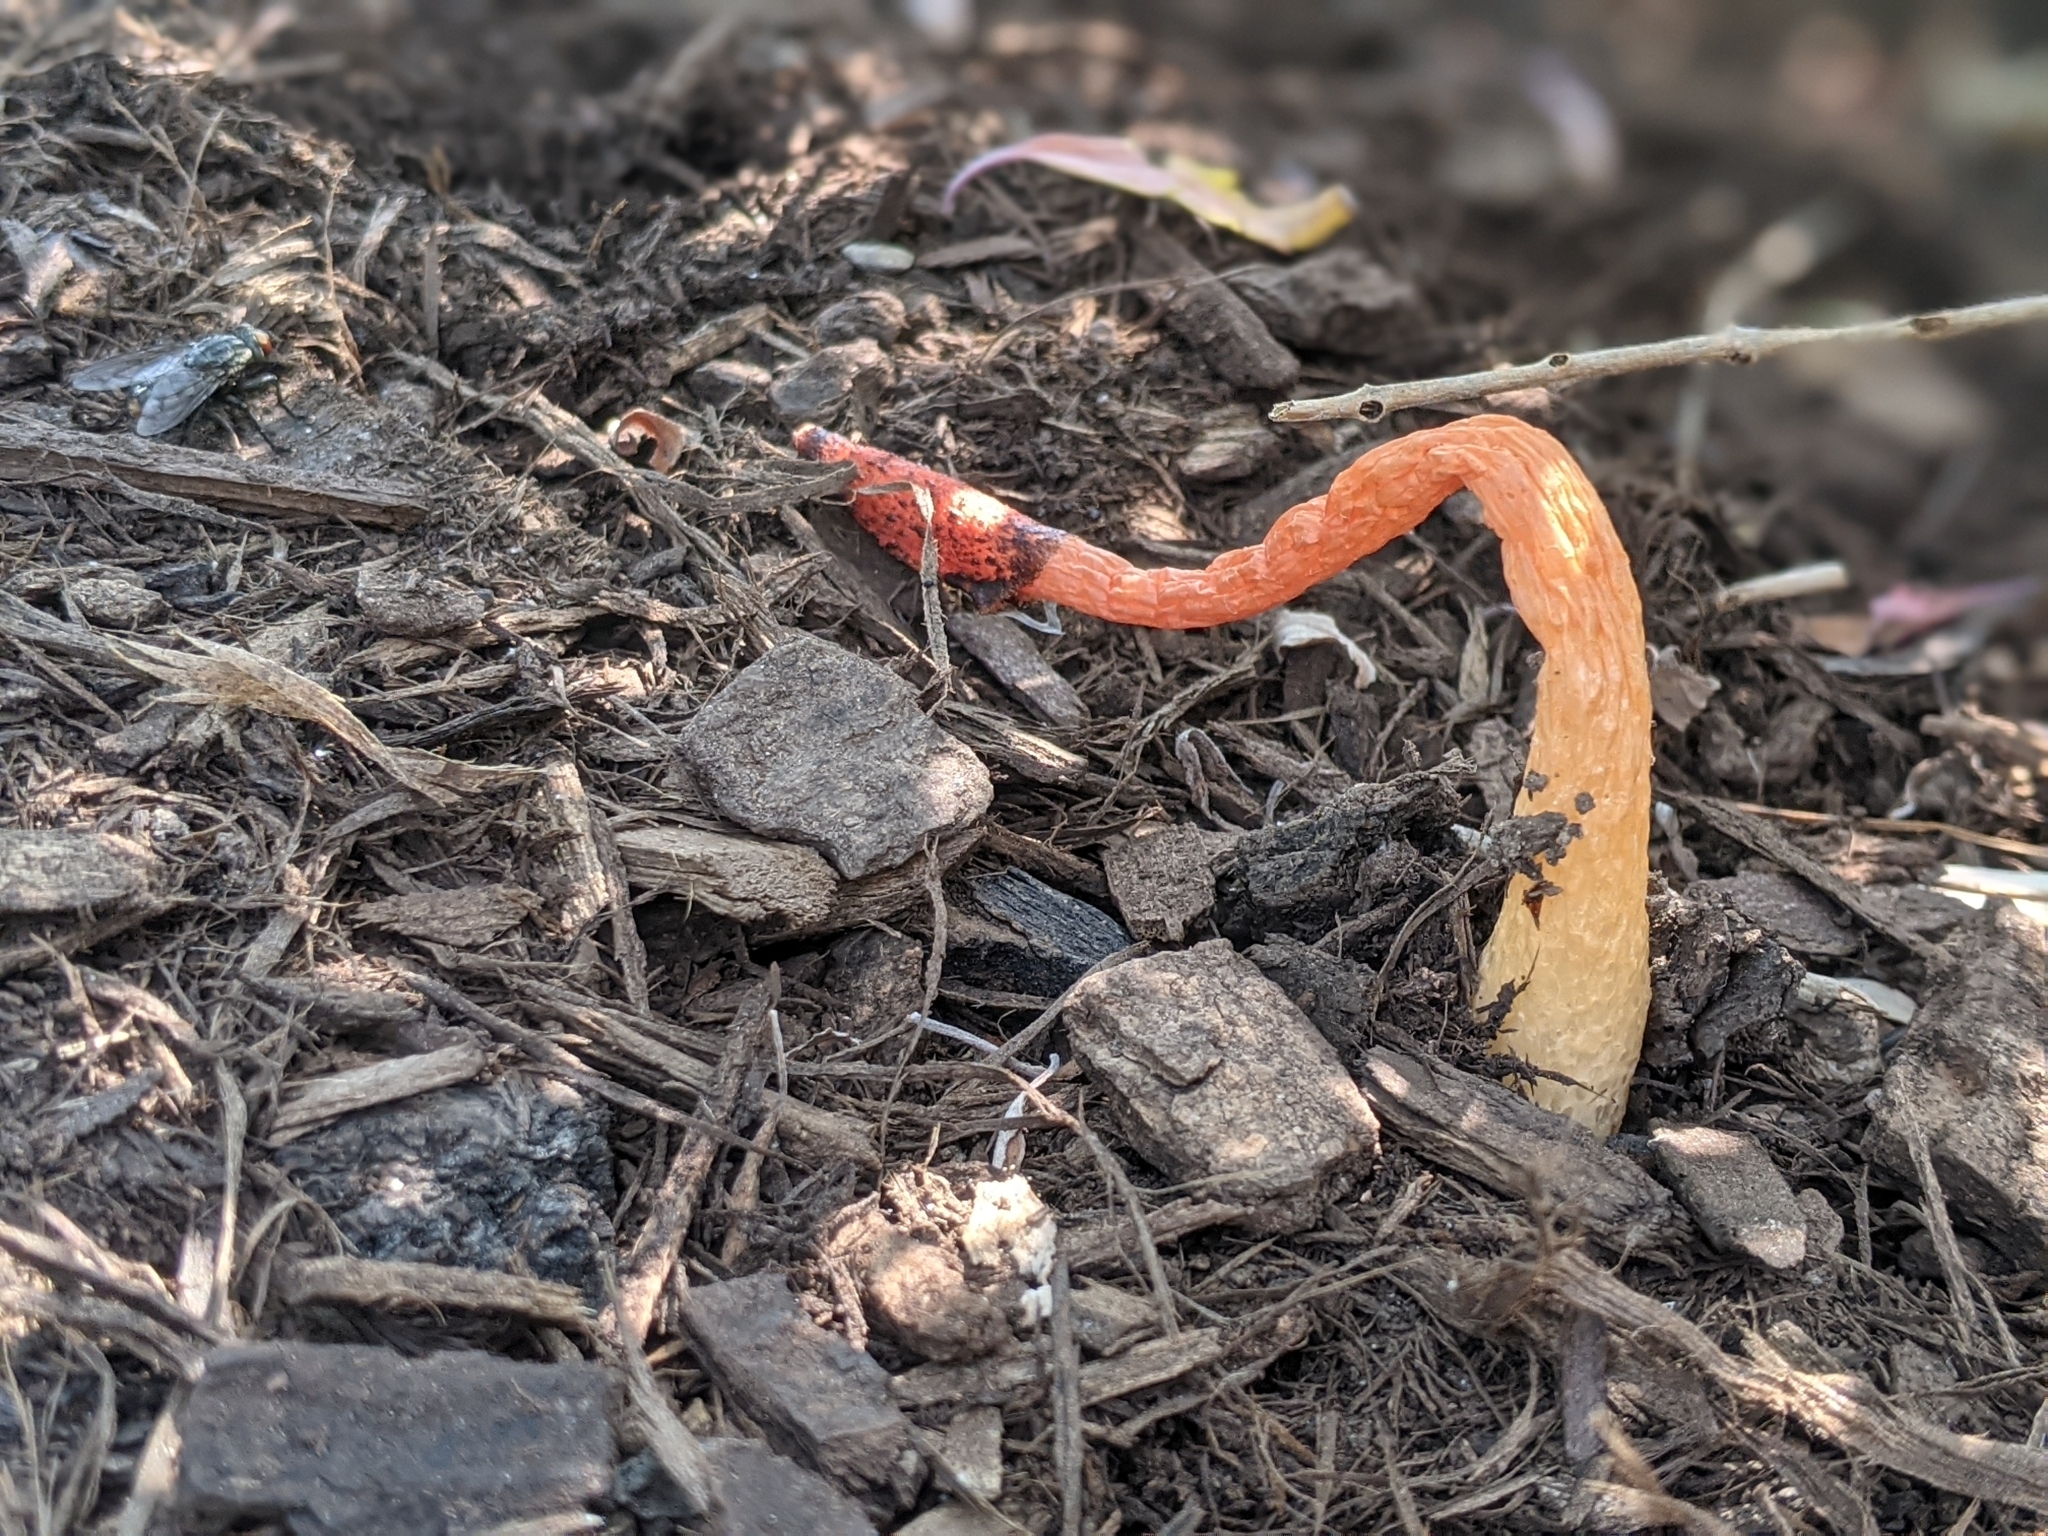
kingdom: Fungi
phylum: Basidiomycota
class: Agaricomycetes
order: Phallales
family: Phallaceae
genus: Phallus
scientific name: Phallus rugulosus
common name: Wrinkly stinkhorn
